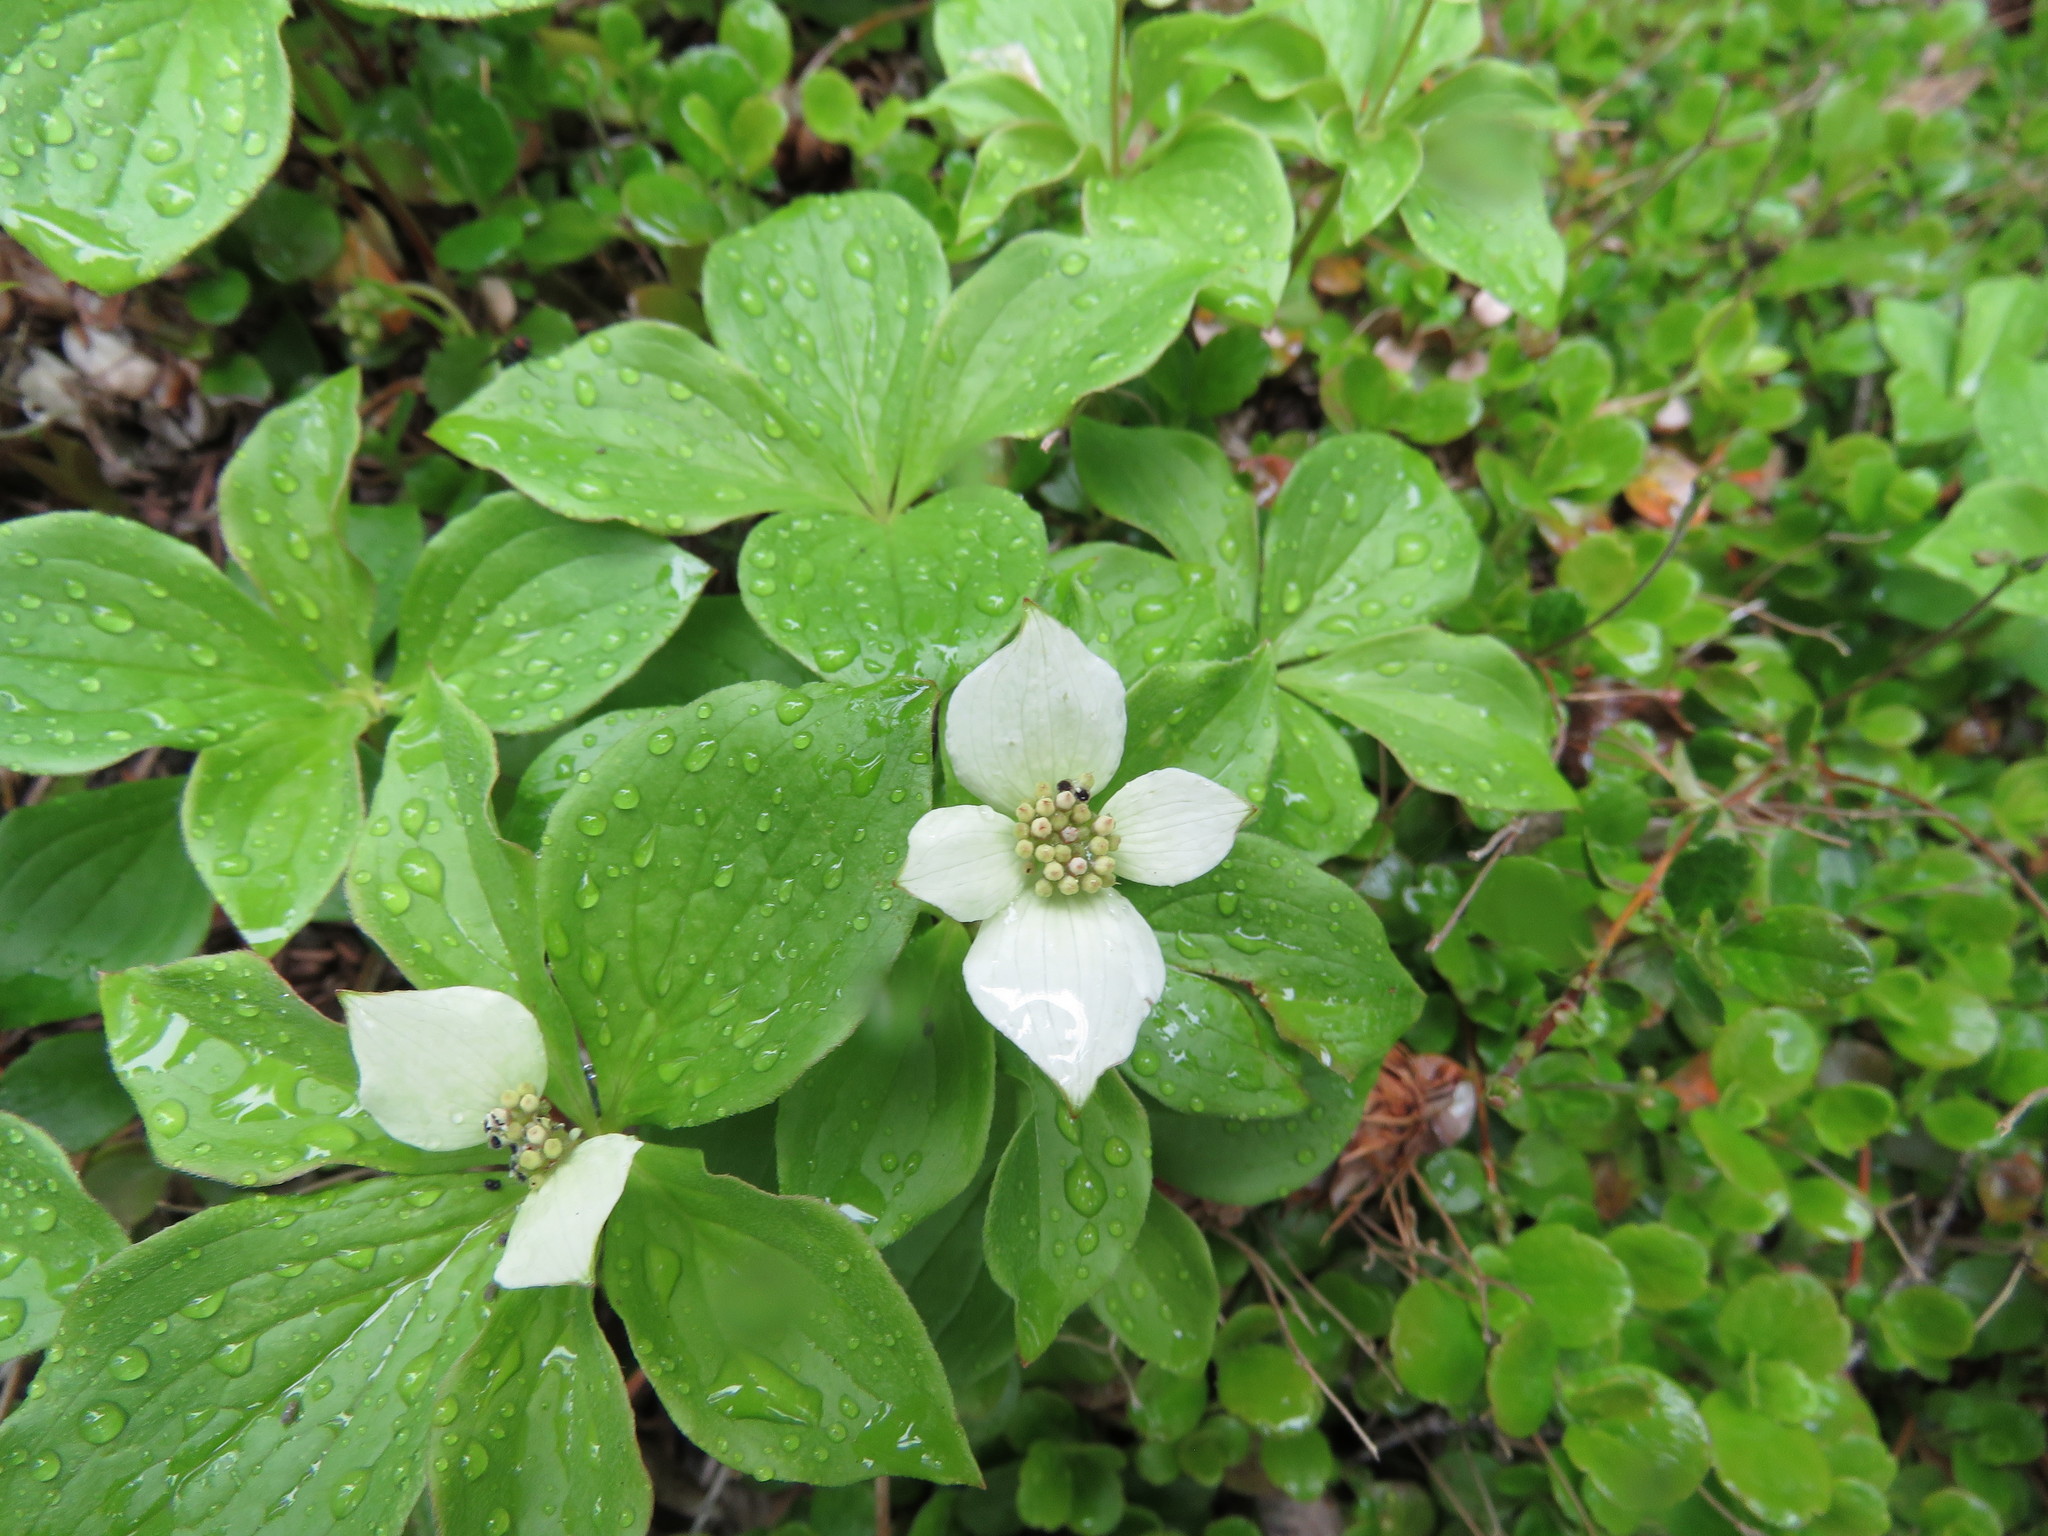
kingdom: Plantae
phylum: Tracheophyta
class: Magnoliopsida
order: Cornales
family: Cornaceae
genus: Cornus
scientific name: Cornus canadensis
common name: Creeping dogwood
